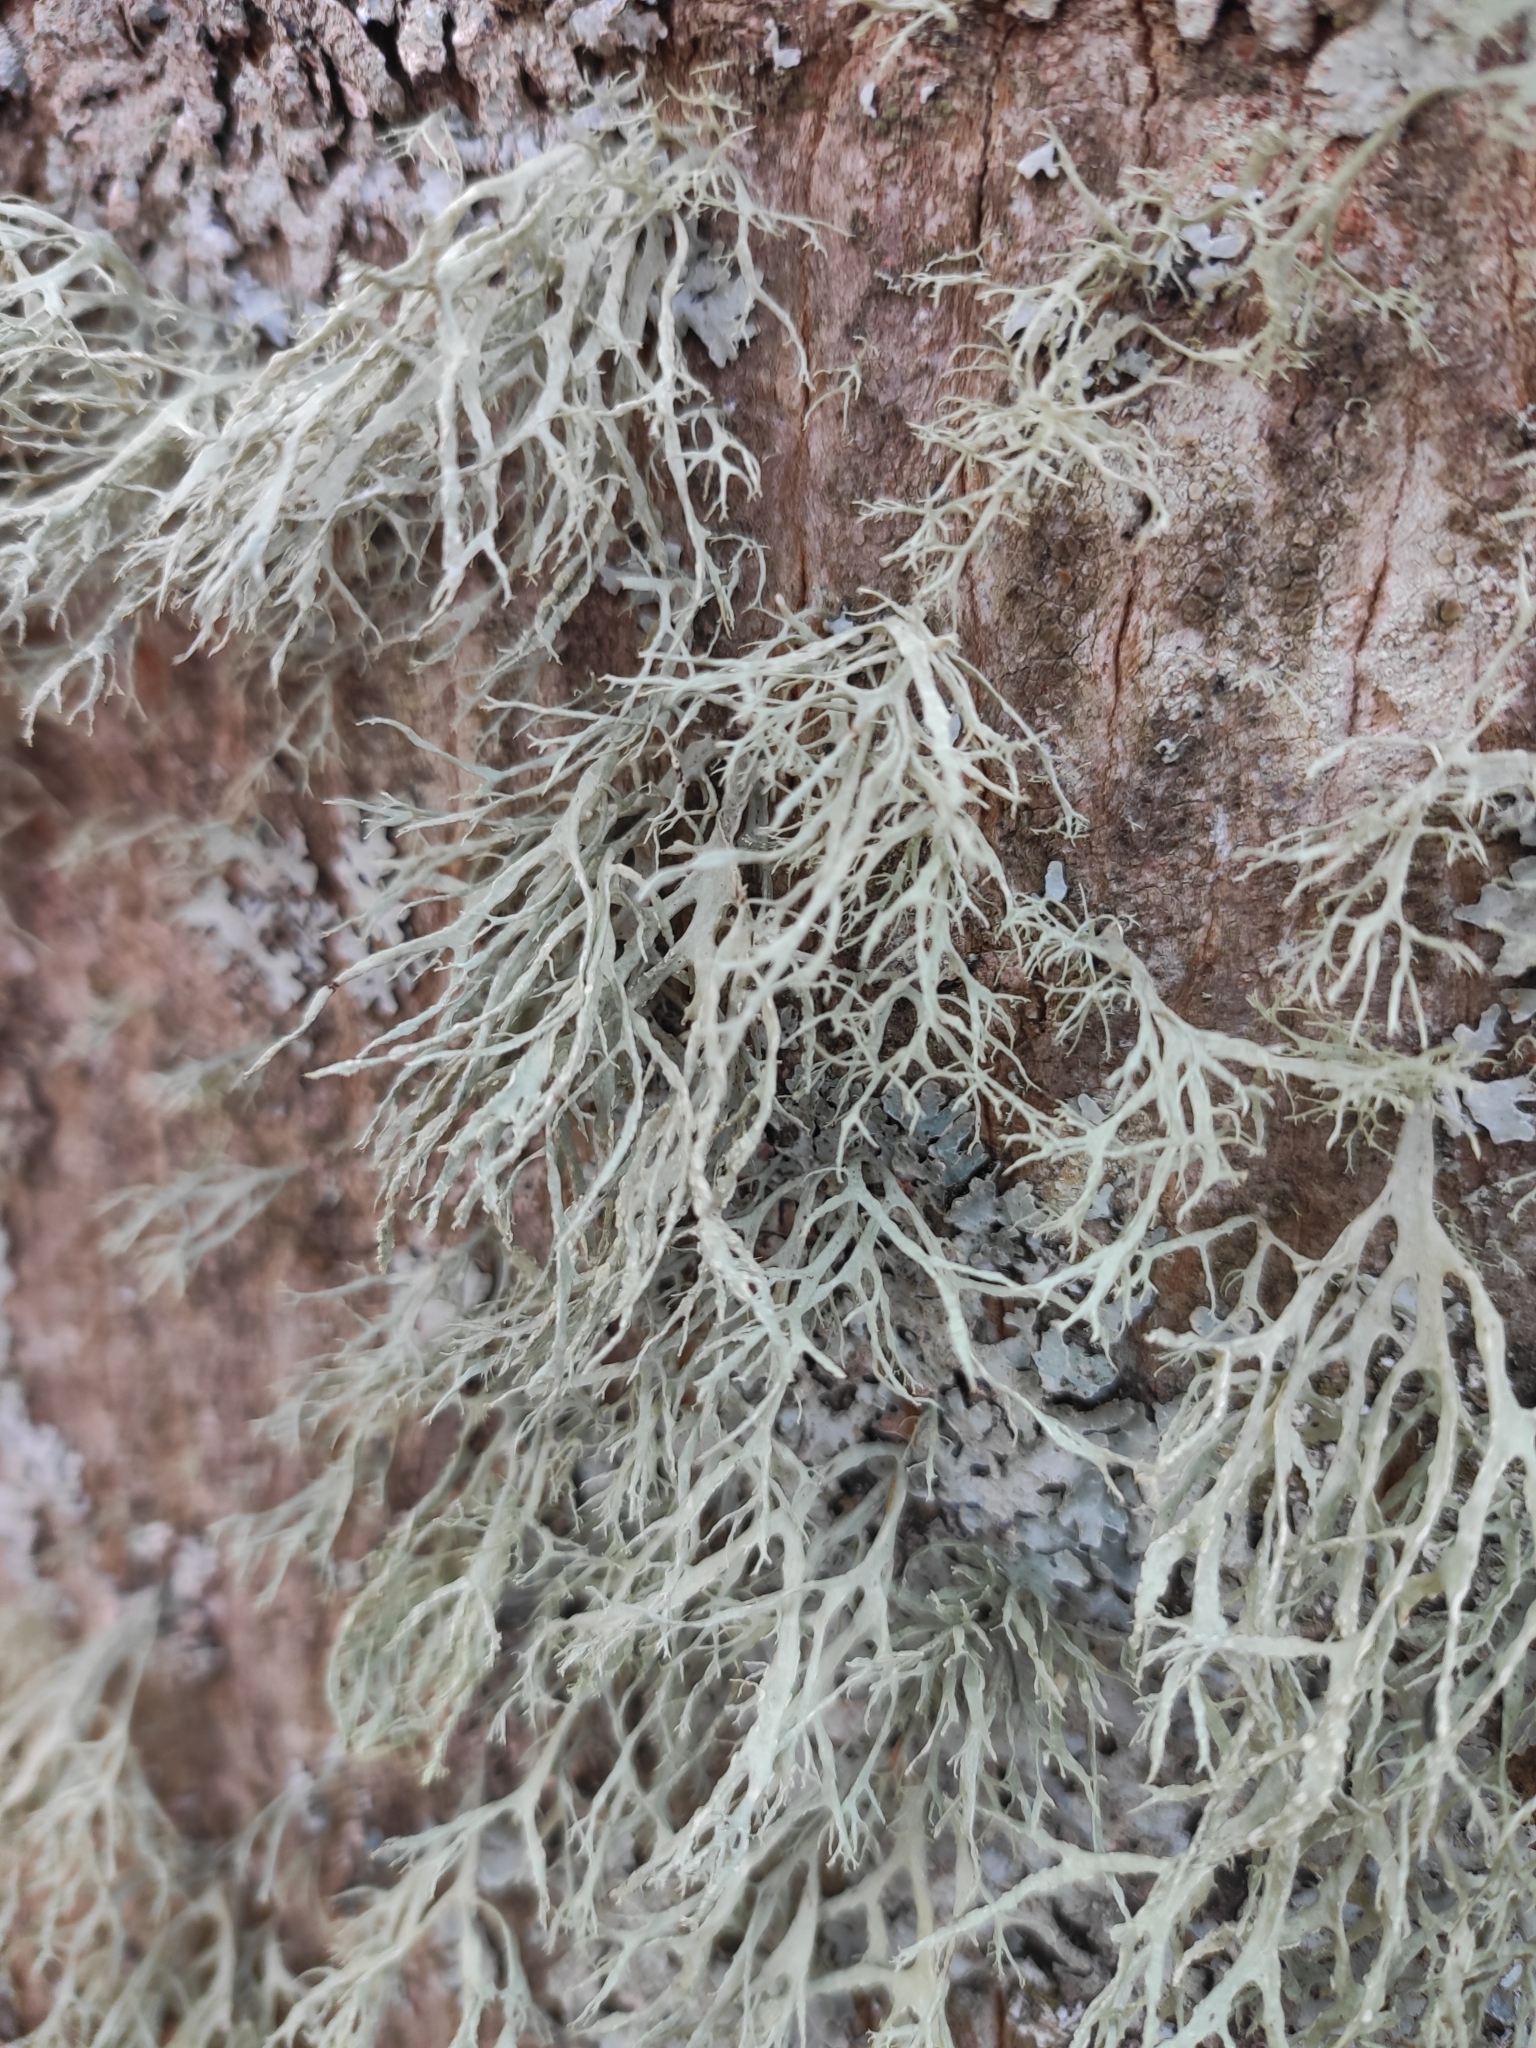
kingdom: Fungi
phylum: Ascomycota
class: Lecanoromycetes
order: Lecanorales
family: Ramalinaceae
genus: Ramalina
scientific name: Ramalina farinacea
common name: Farinose cartilage lichen
